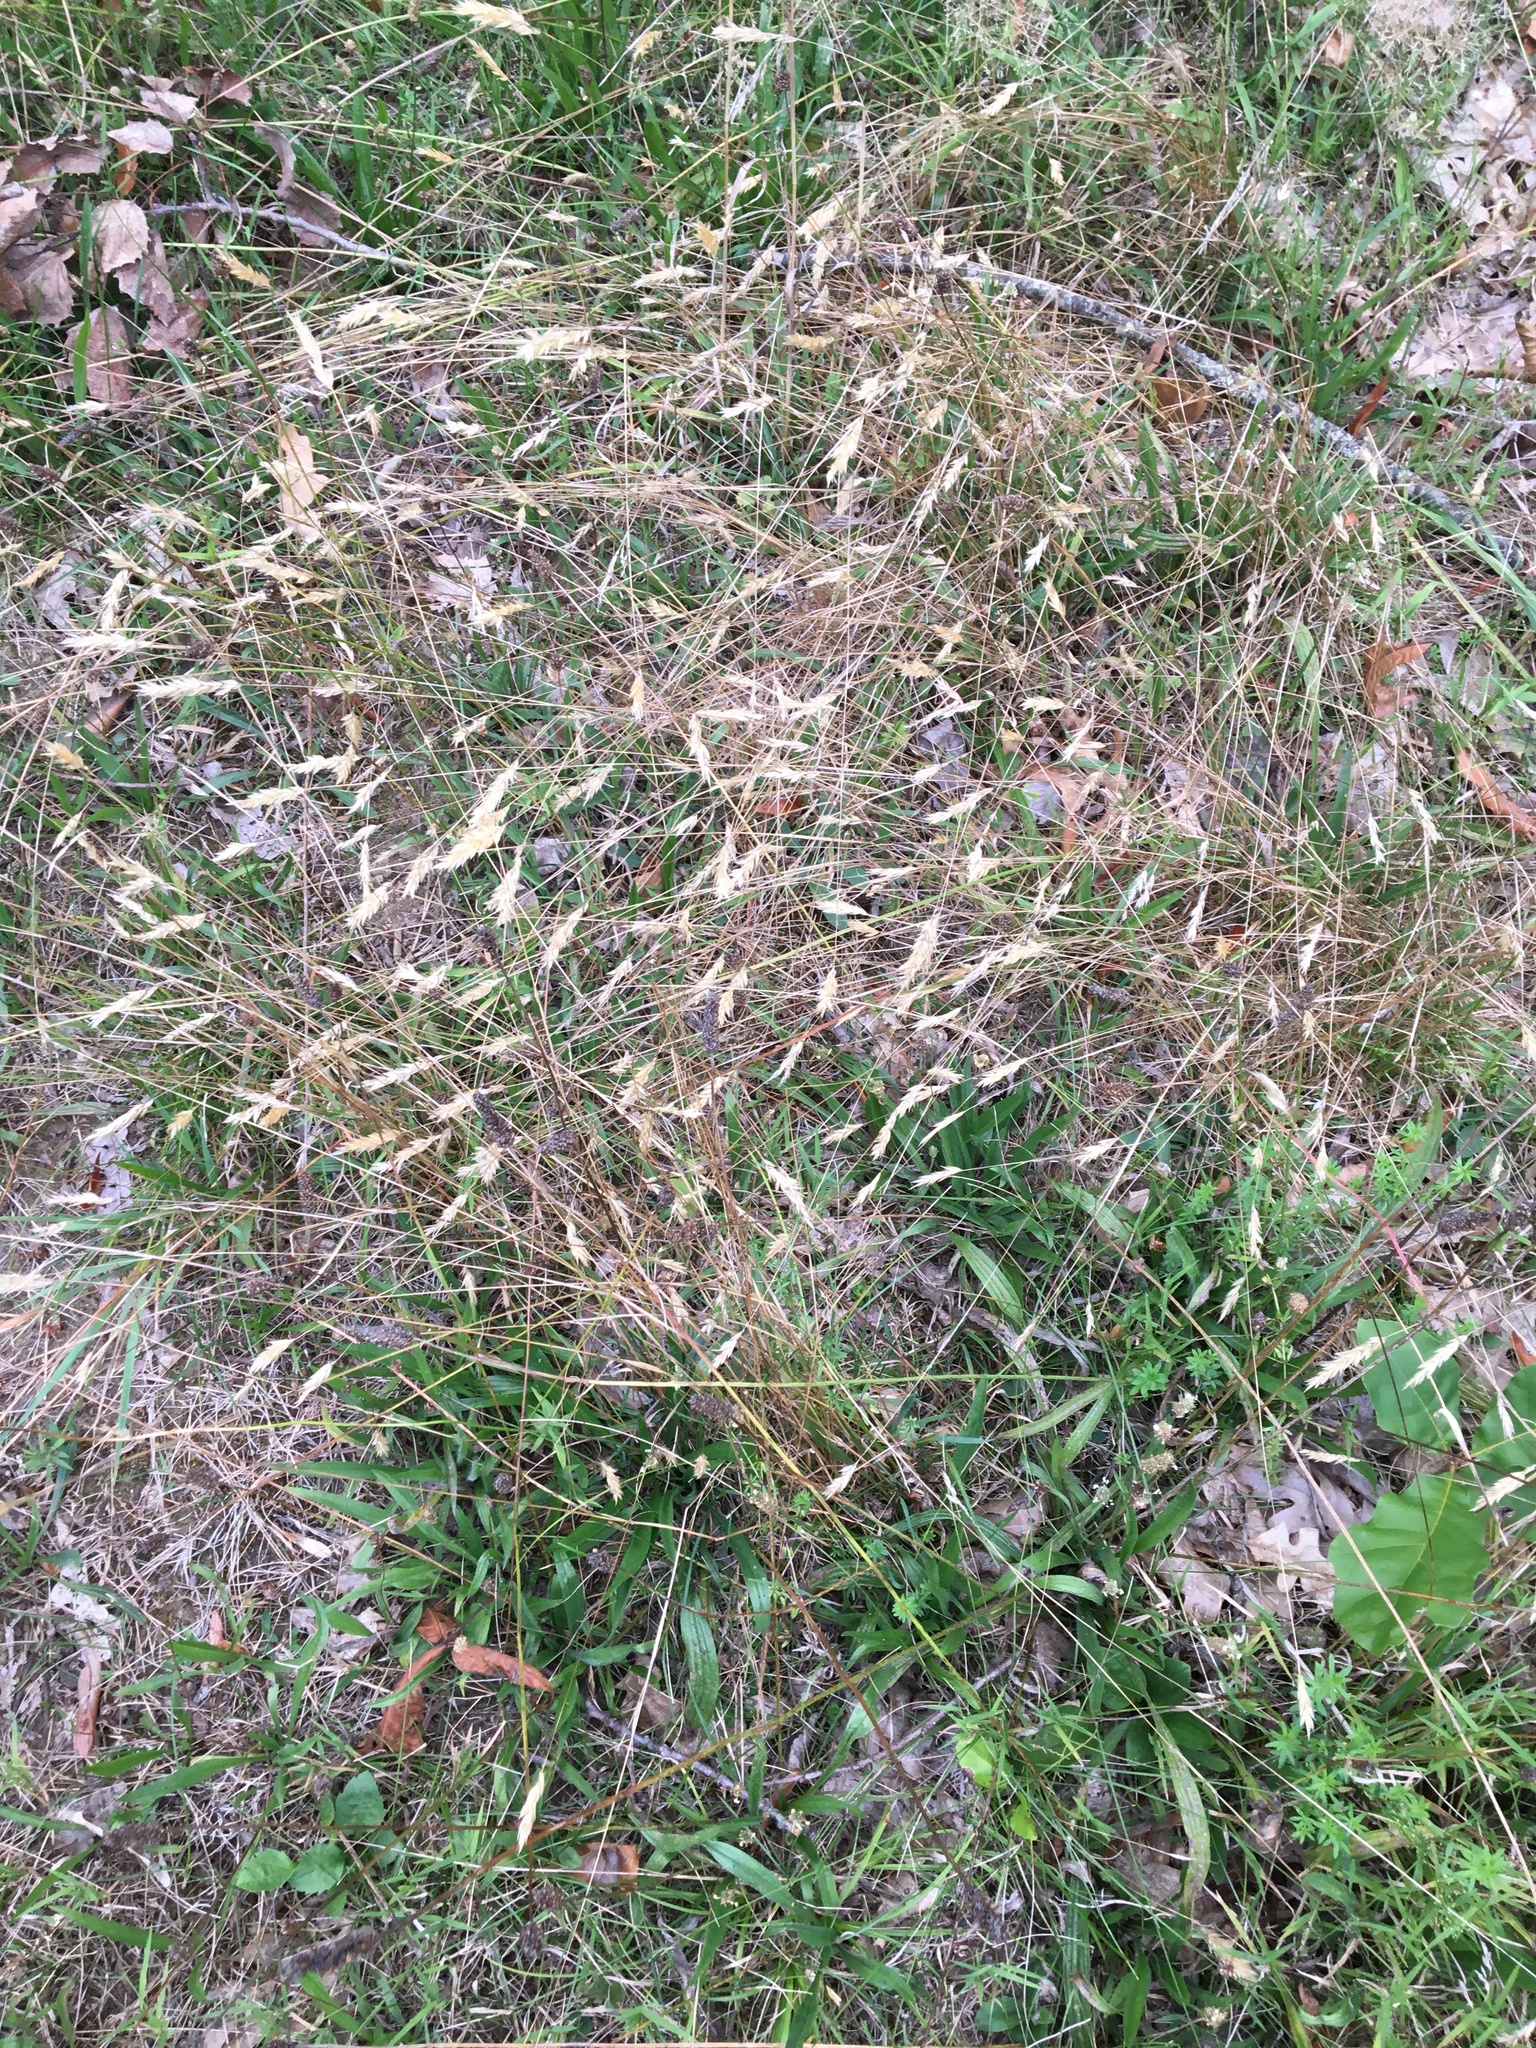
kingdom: Plantae
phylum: Tracheophyta
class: Liliopsida
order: Poales
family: Poaceae
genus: Anthoxanthum
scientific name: Anthoxanthum odoratum
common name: Sweet vernalgrass
